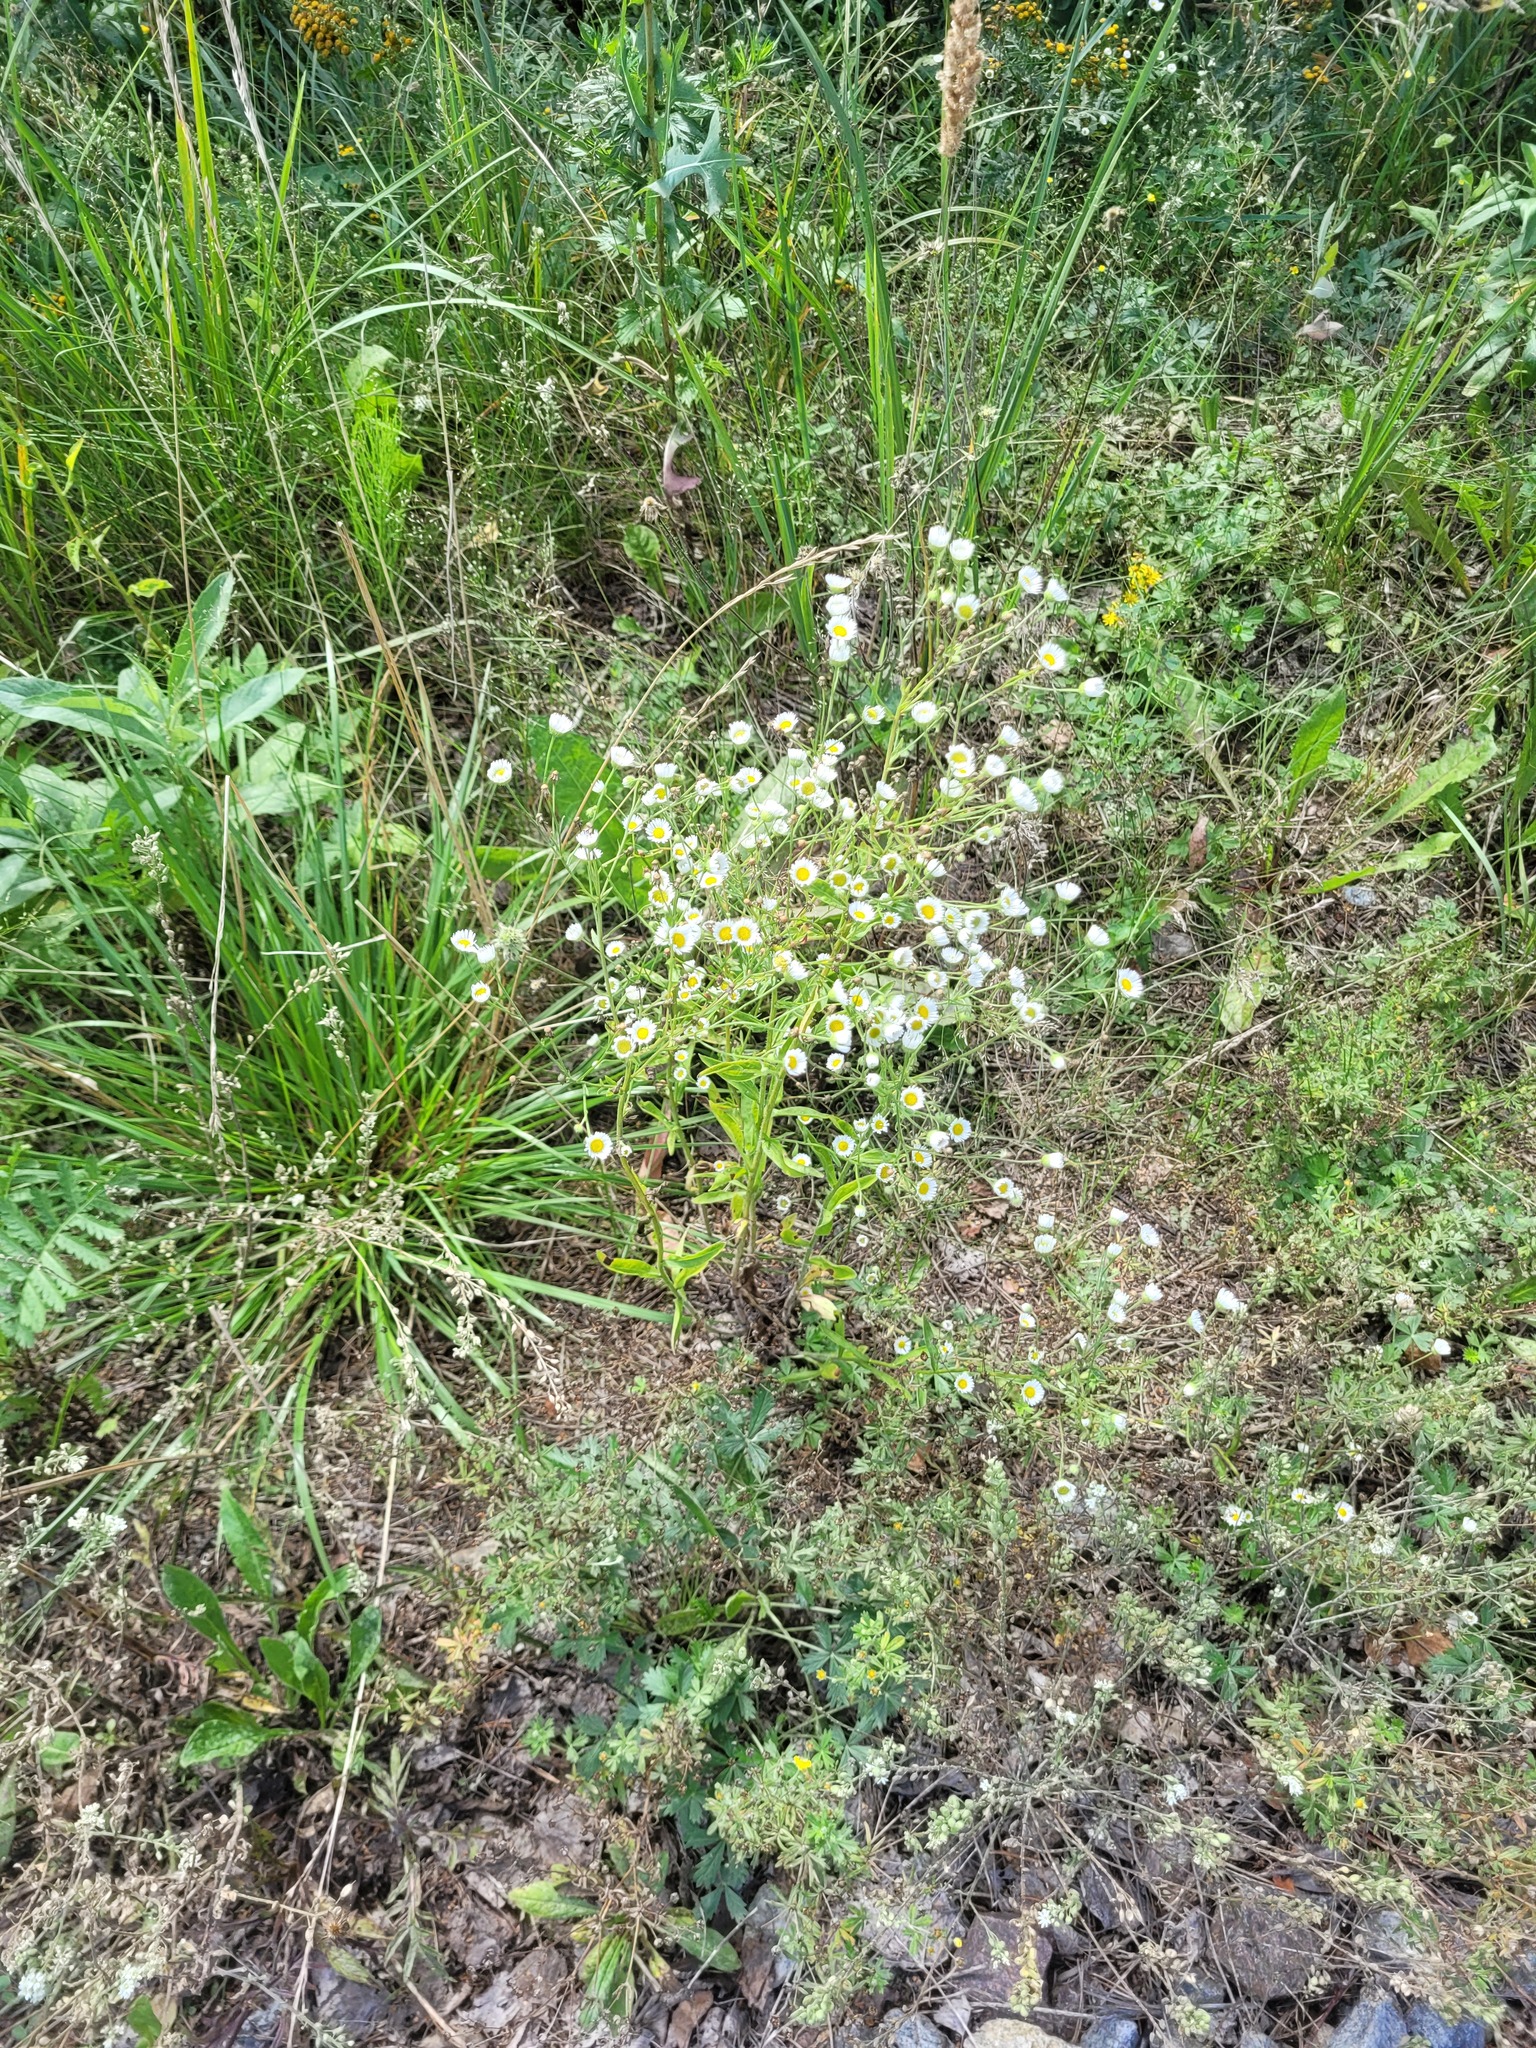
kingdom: Plantae
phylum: Tracheophyta
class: Magnoliopsida
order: Asterales
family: Asteraceae
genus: Erigeron
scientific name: Erigeron annuus
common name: Tall fleabane
